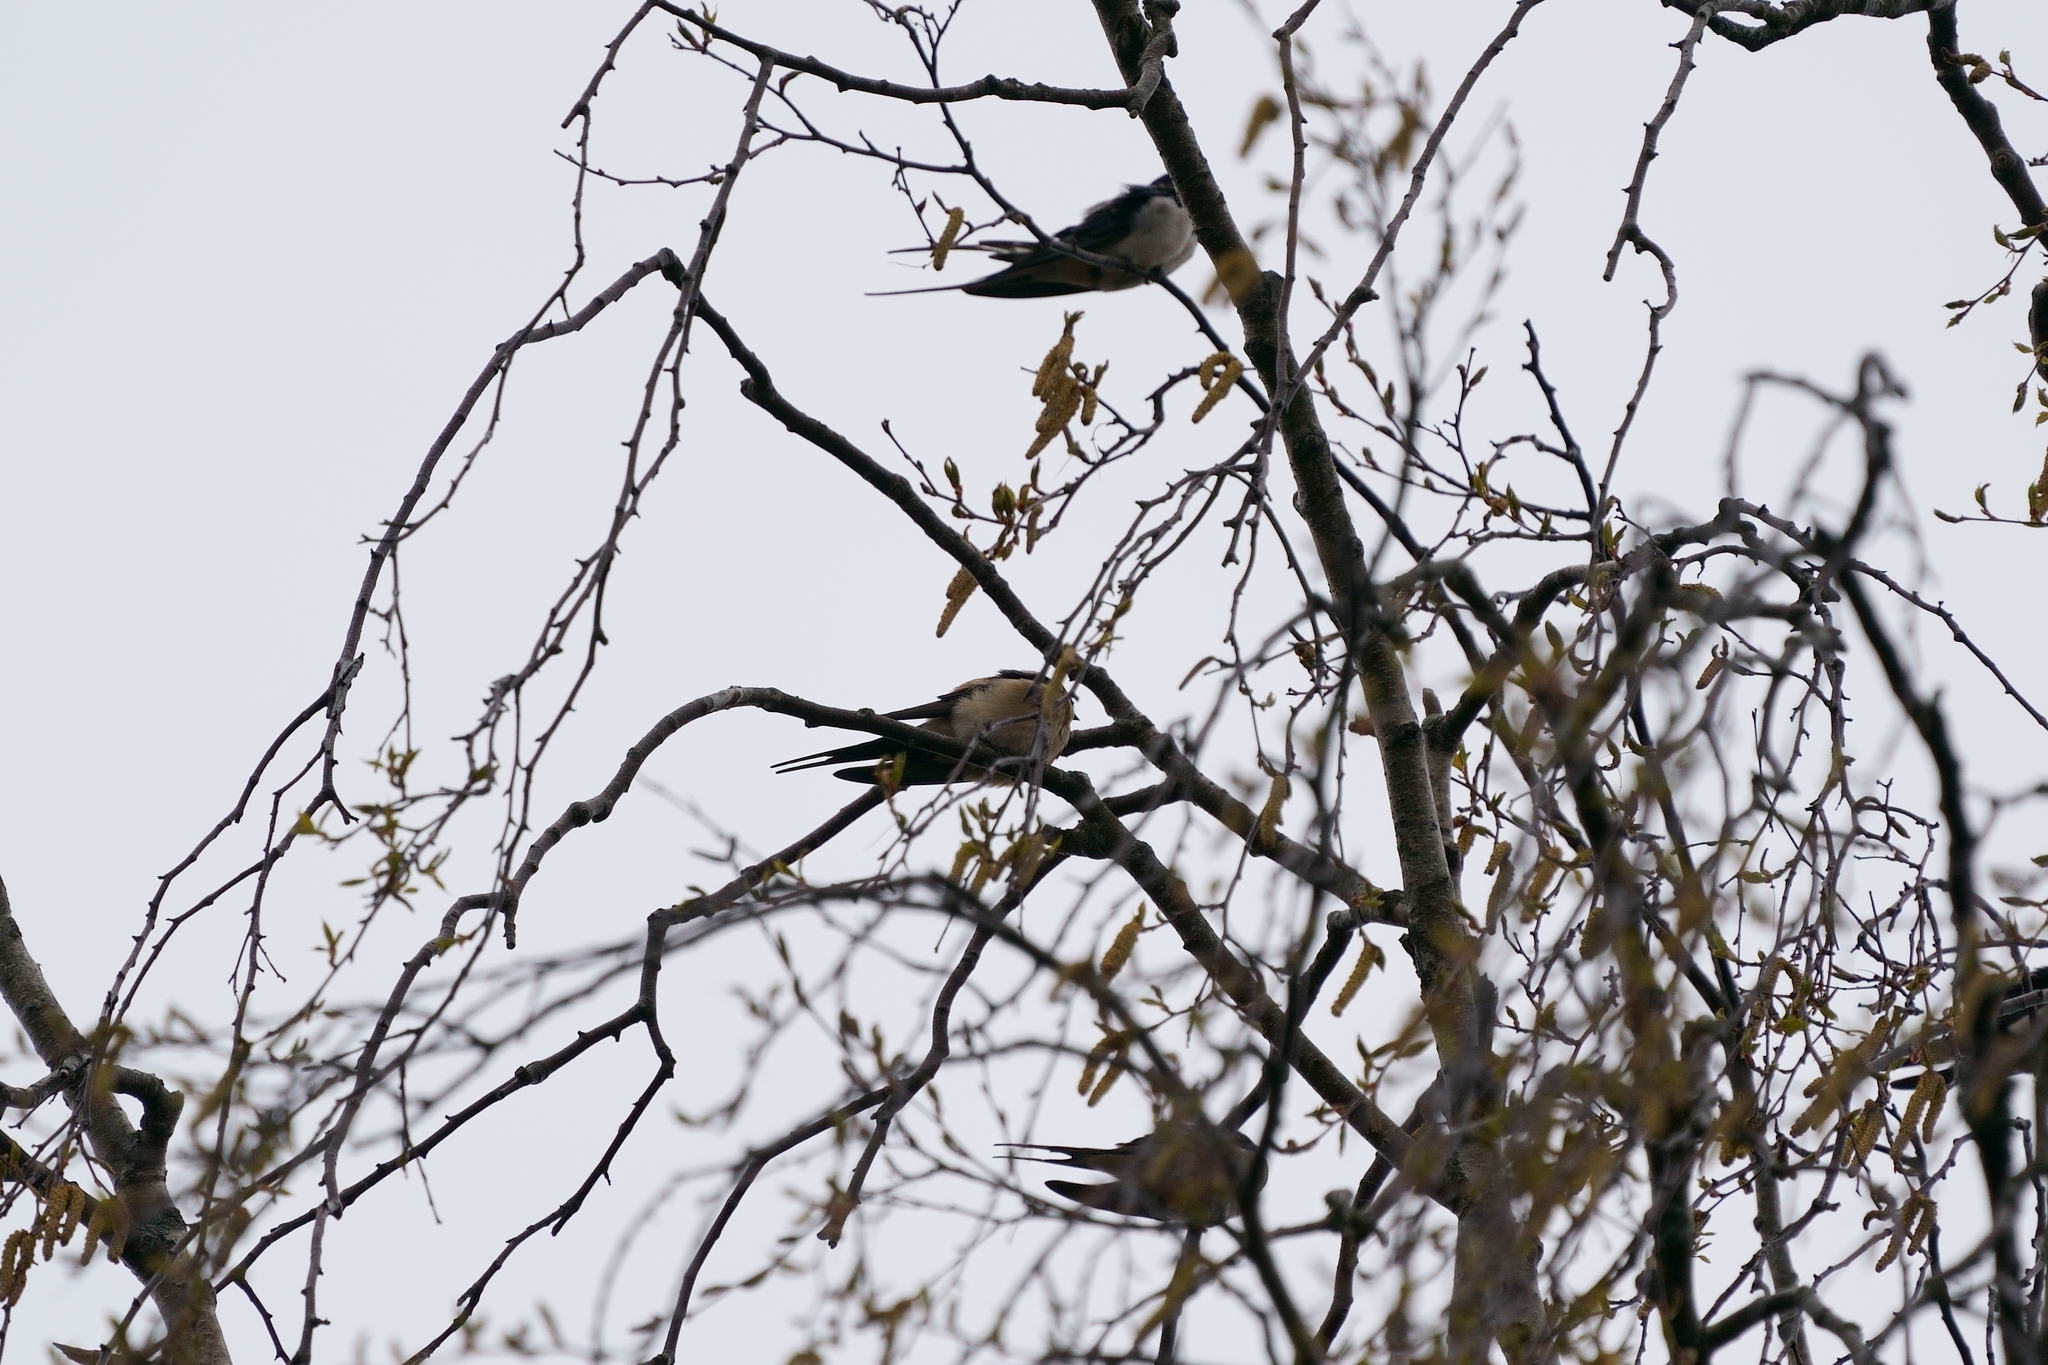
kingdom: Animalia
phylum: Chordata
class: Aves
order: Passeriformes
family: Hirundinidae
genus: Cecropis
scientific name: Cecropis daurica
